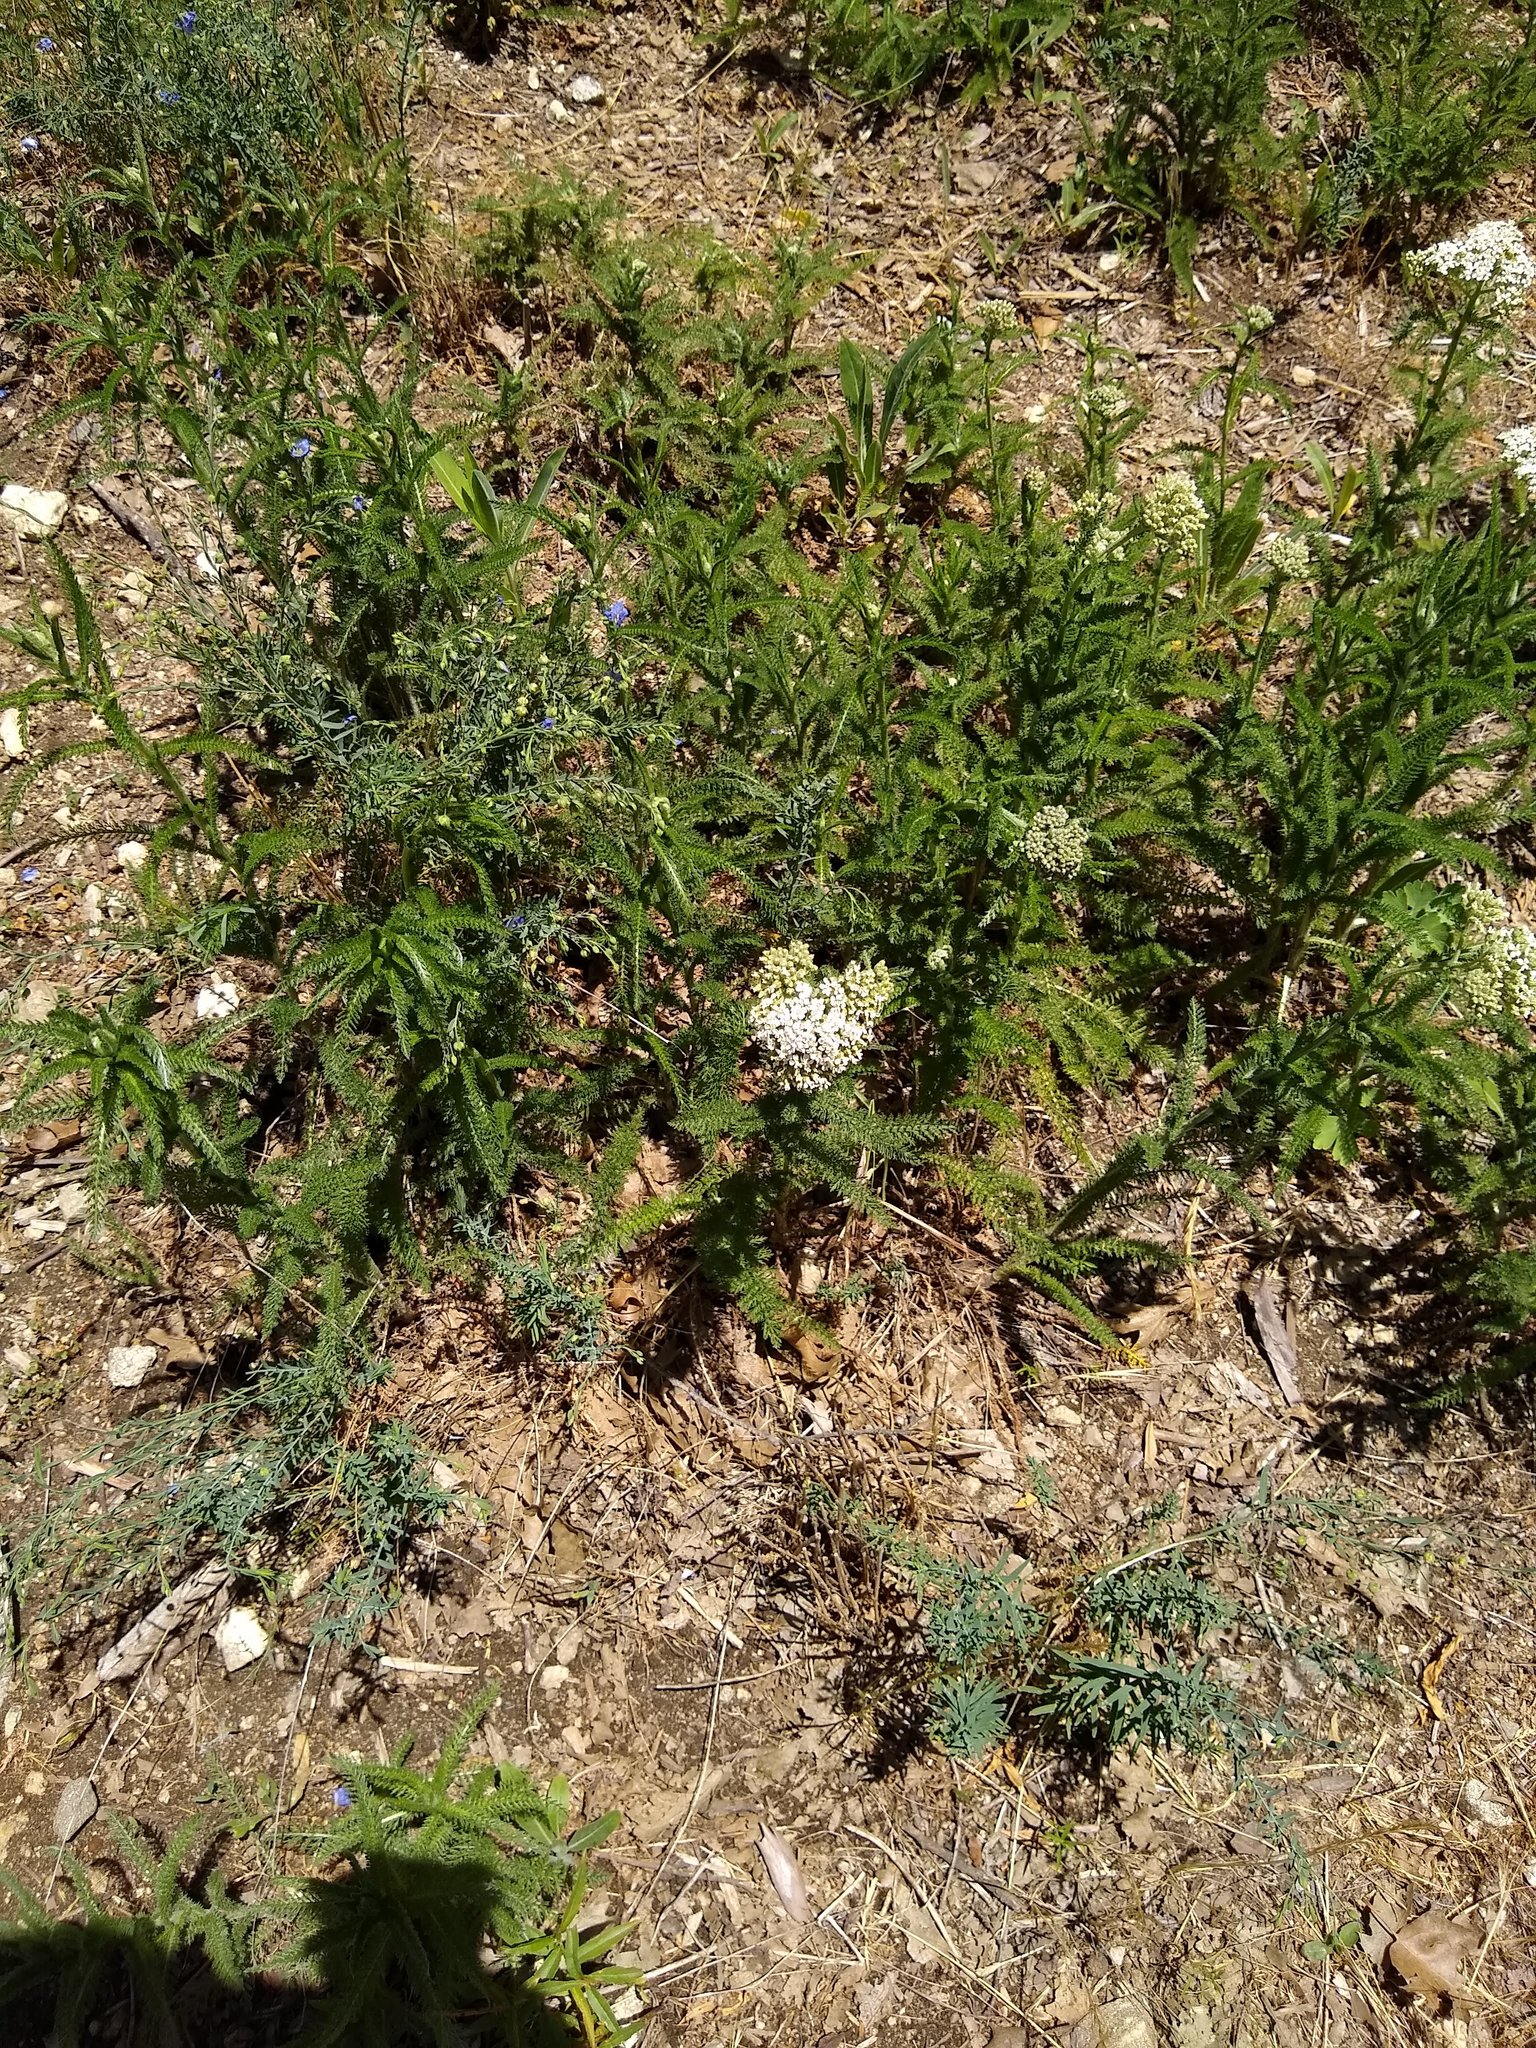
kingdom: Plantae
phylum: Tracheophyta
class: Magnoliopsida
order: Asterales
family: Asteraceae
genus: Achillea
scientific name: Achillea millefolium
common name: Yarrow
